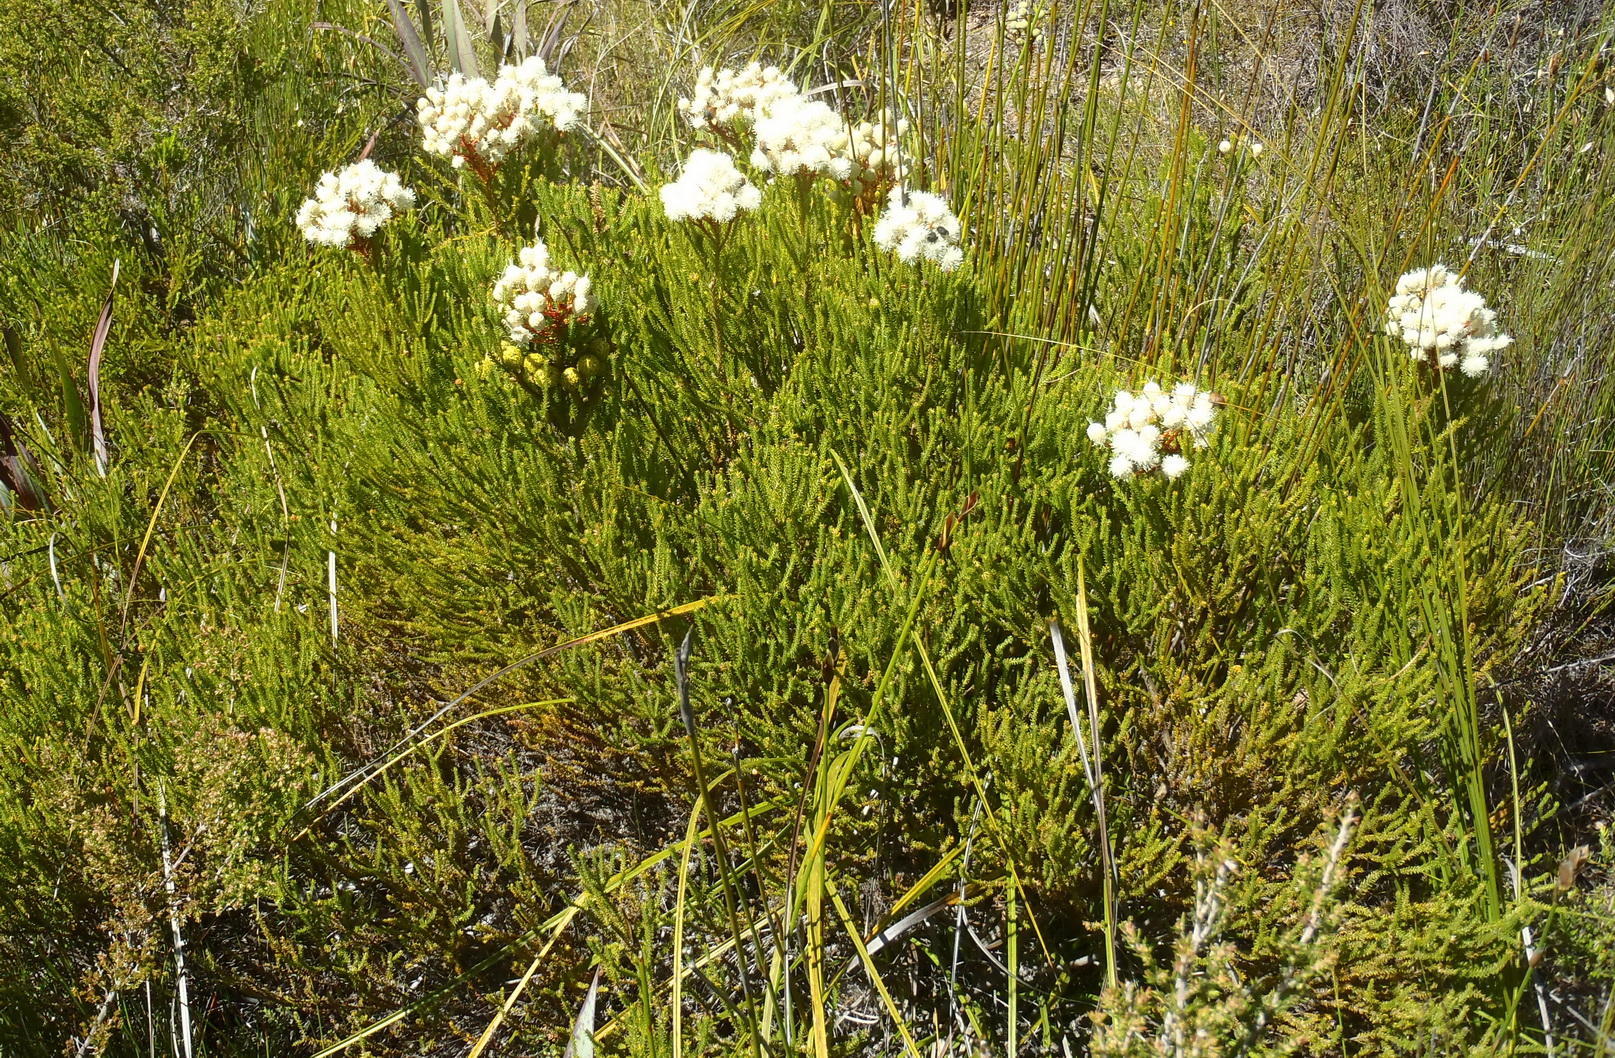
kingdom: Plantae
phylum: Tracheophyta
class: Magnoliopsida
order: Bruniales
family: Bruniaceae
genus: Berzelia
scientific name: Berzelia intermedia
